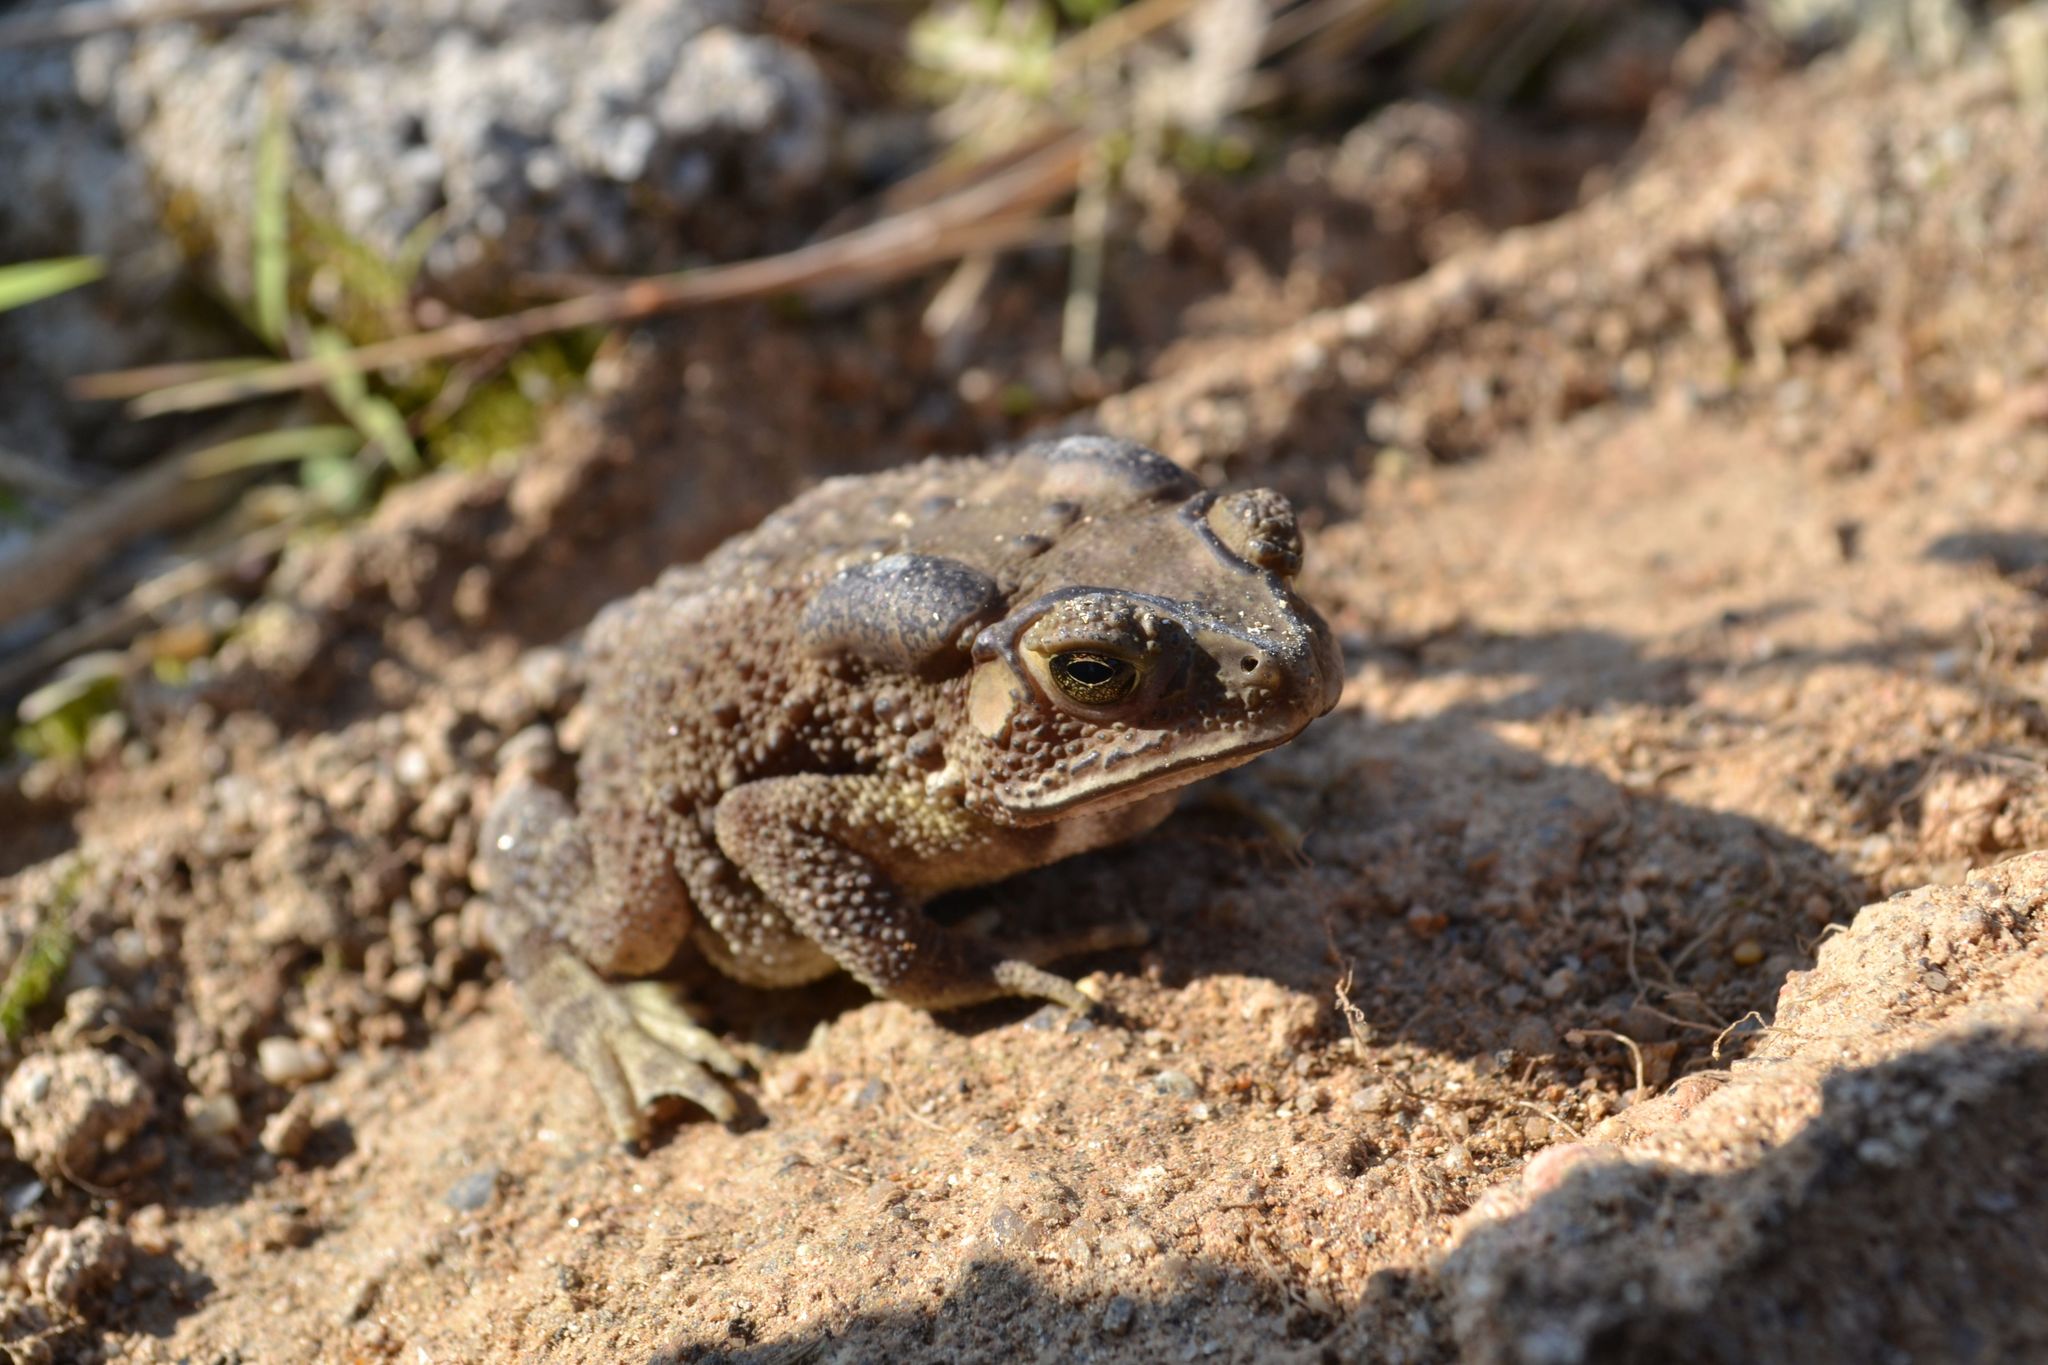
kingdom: Animalia
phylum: Chordata
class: Amphibia
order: Anura
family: Bufonidae
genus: Duttaphrynus
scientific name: Duttaphrynus melanostictus
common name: Common sunda toad
